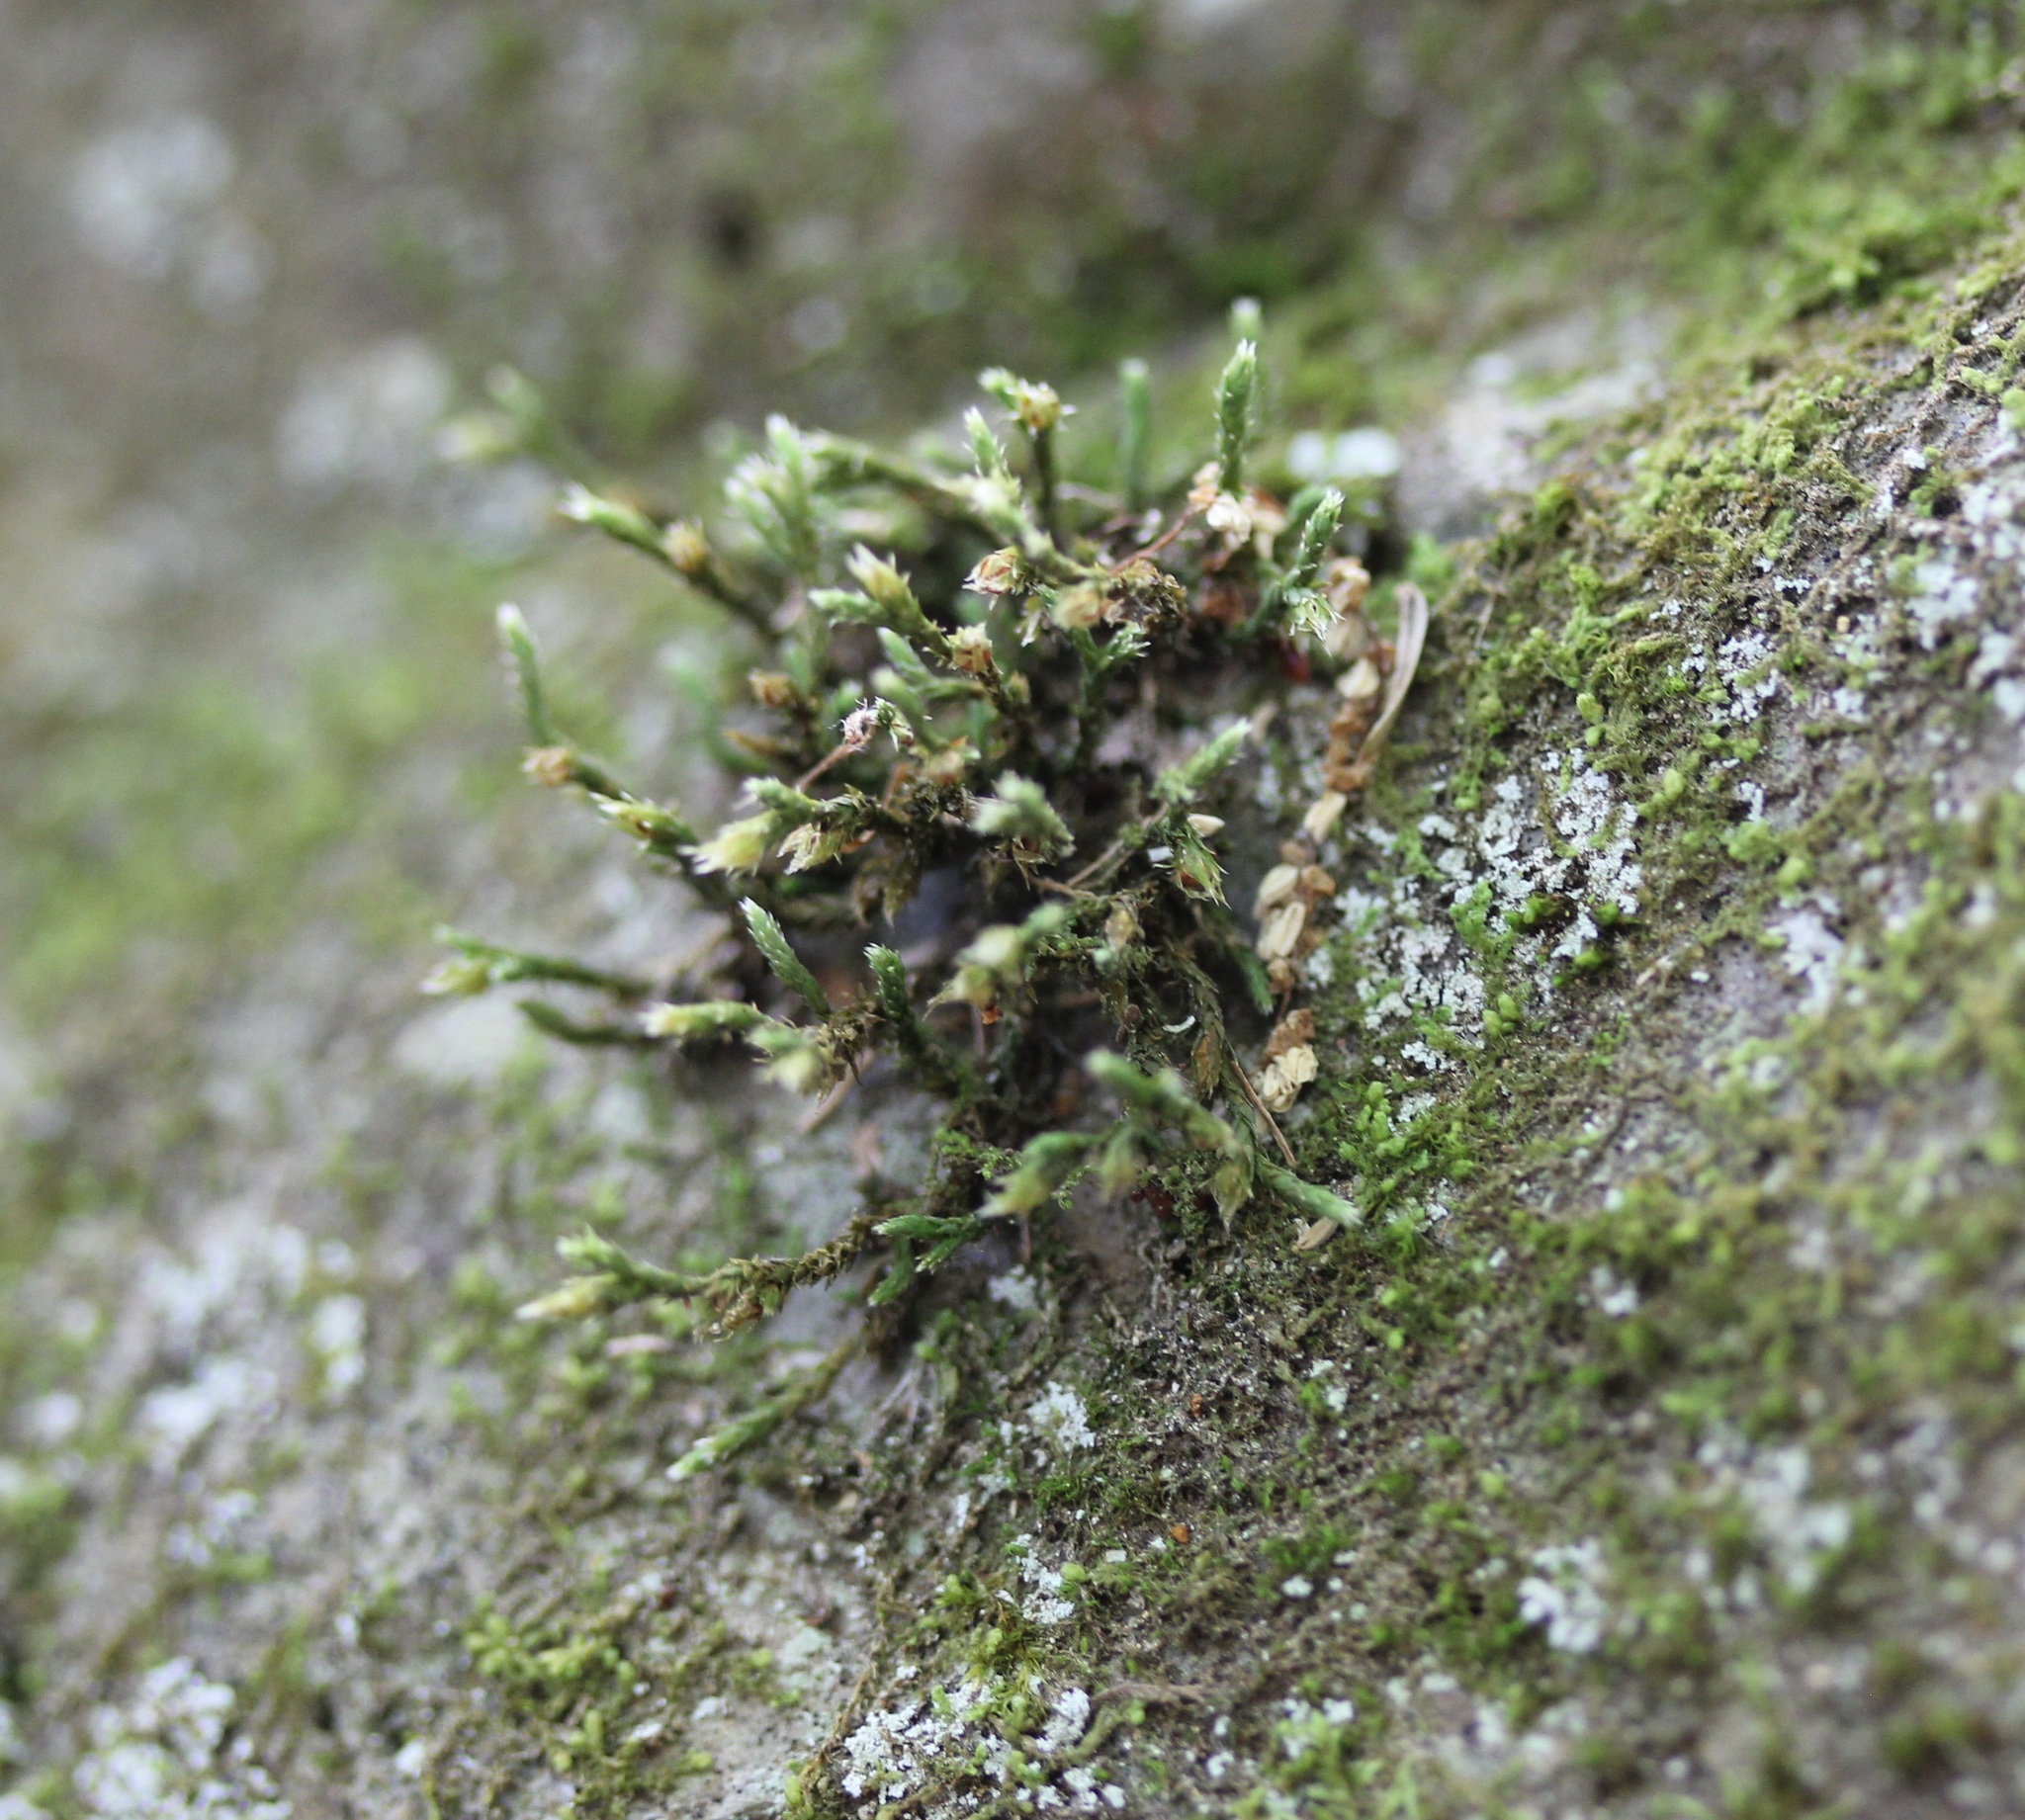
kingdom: Plantae
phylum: Bryophyta
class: Bryopsida
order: Hedwigiales
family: Hedwigiaceae
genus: Hedwigia
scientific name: Hedwigia ciliata
